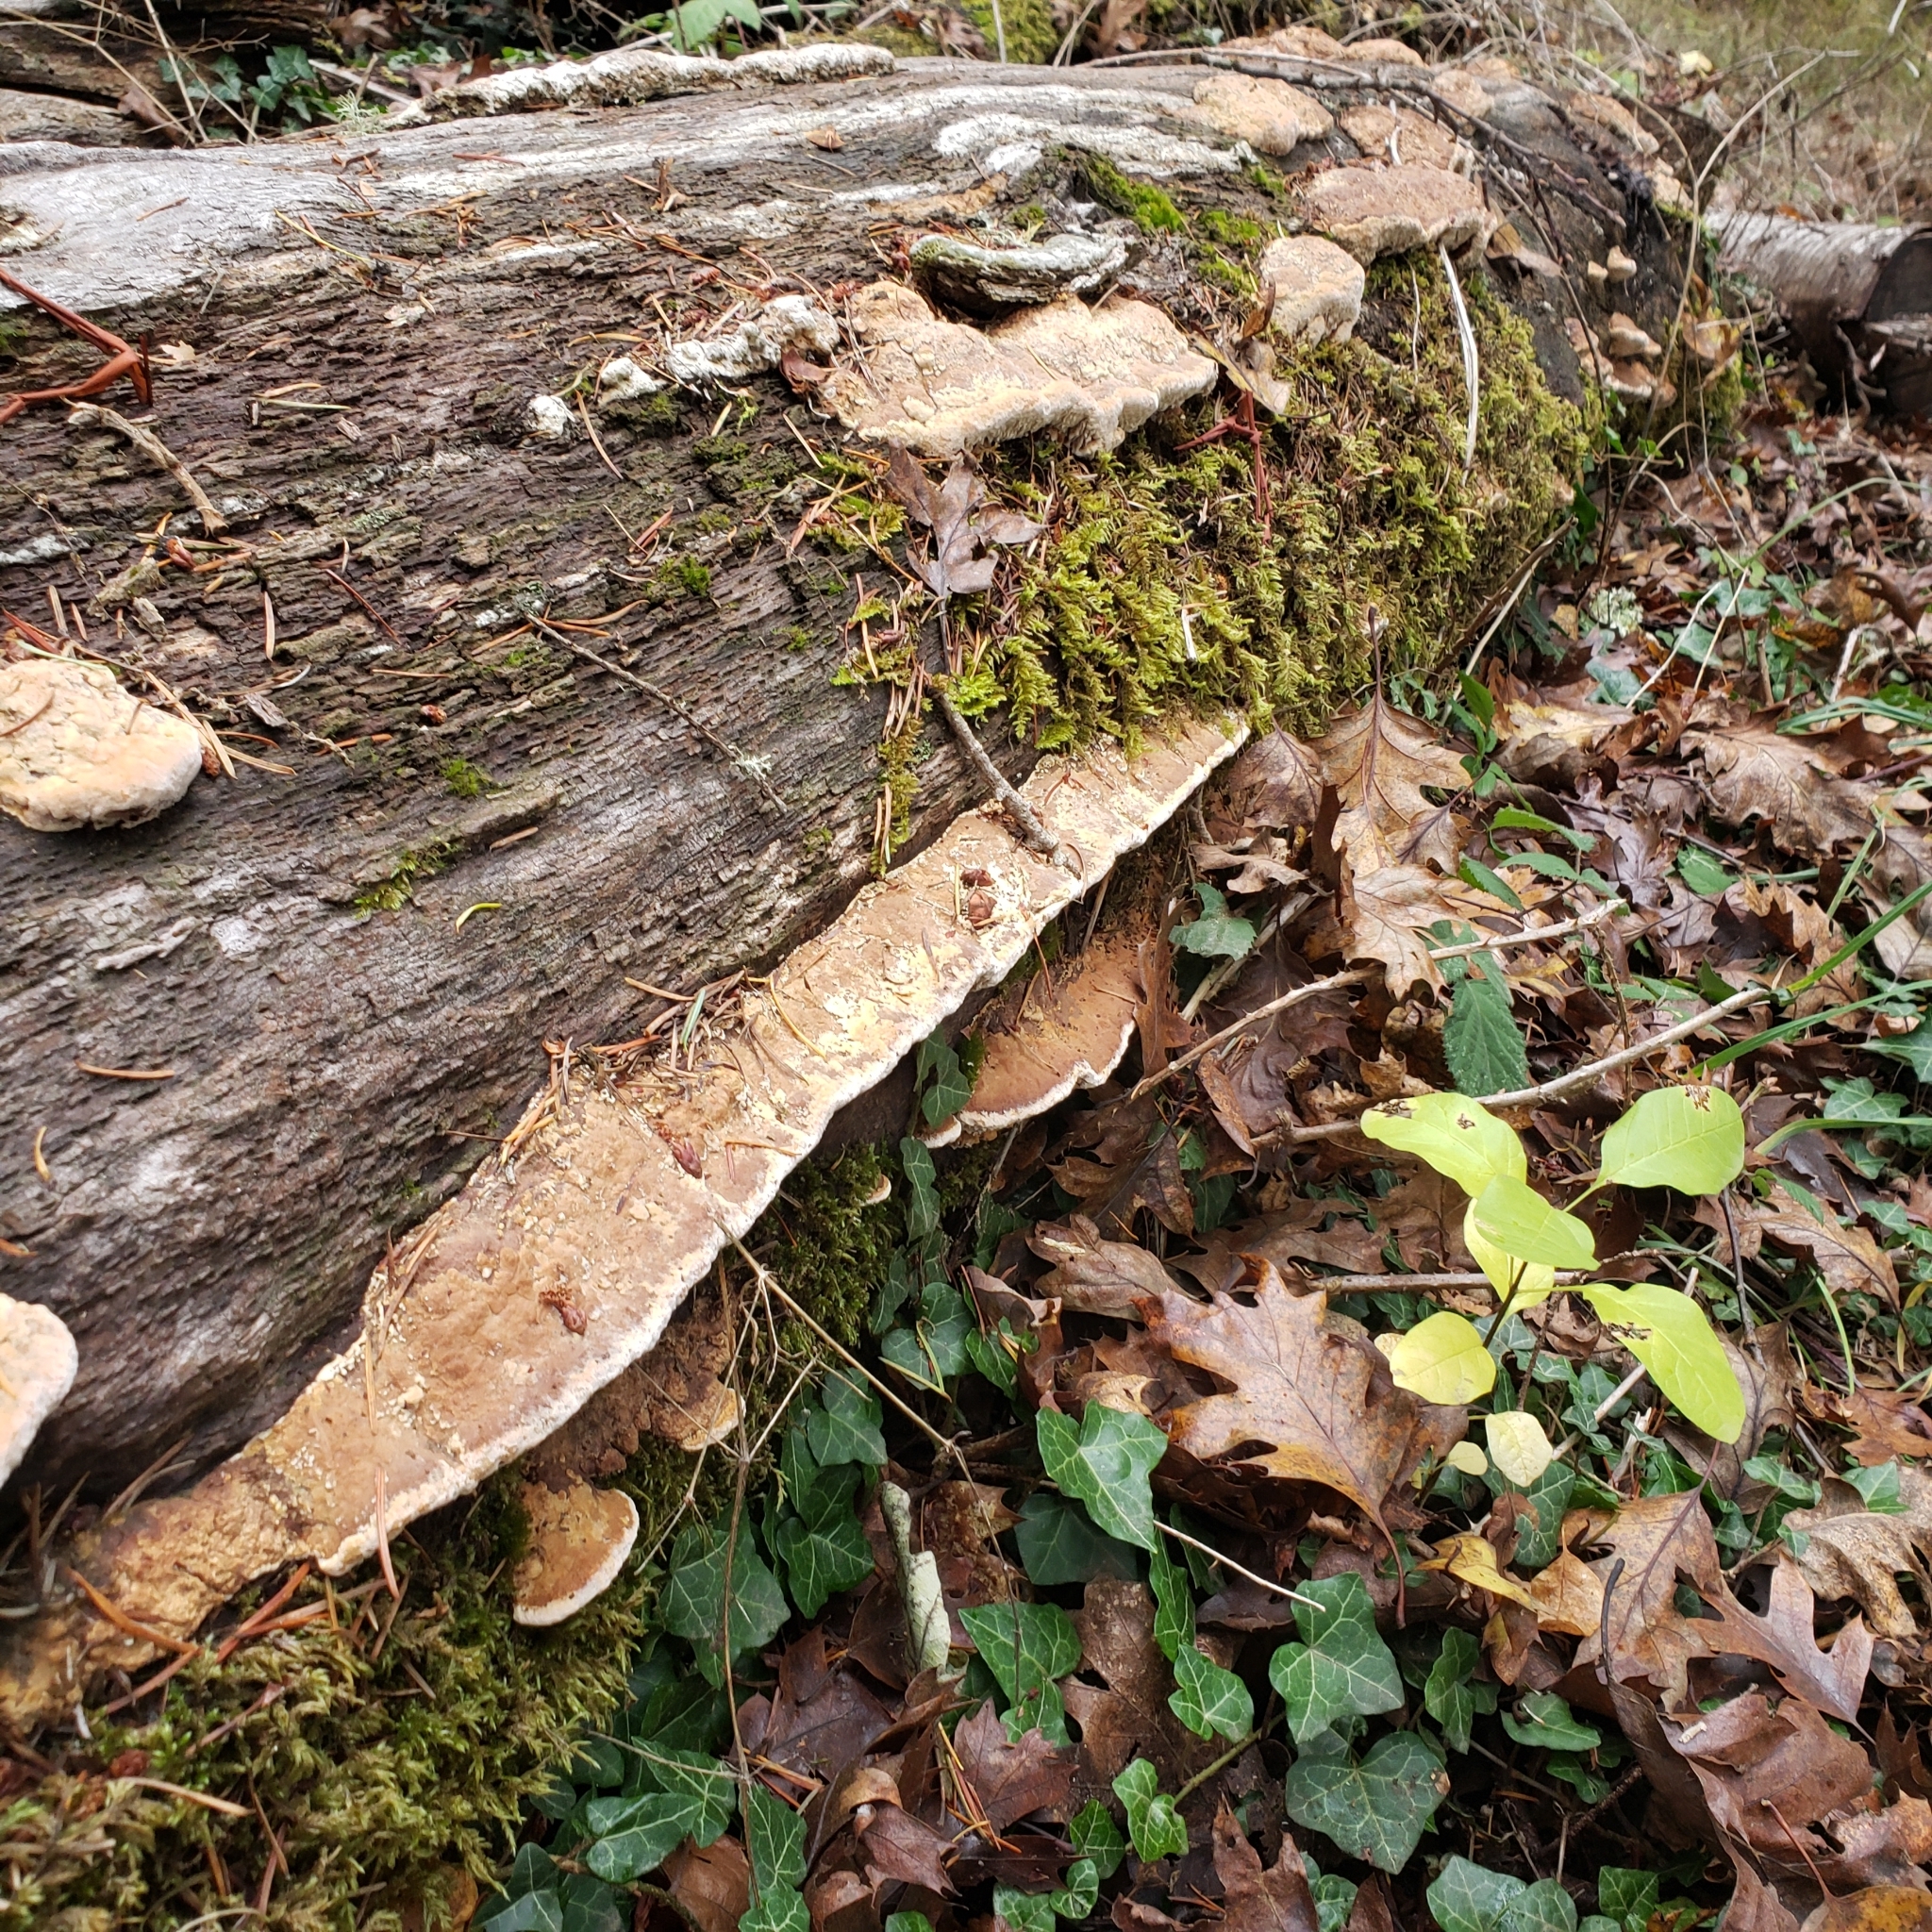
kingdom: Fungi
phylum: Basidiomycota
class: Agaricomycetes
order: Polyporales
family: Fomitopsidaceae
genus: Fomitopsis
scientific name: Fomitopsis
